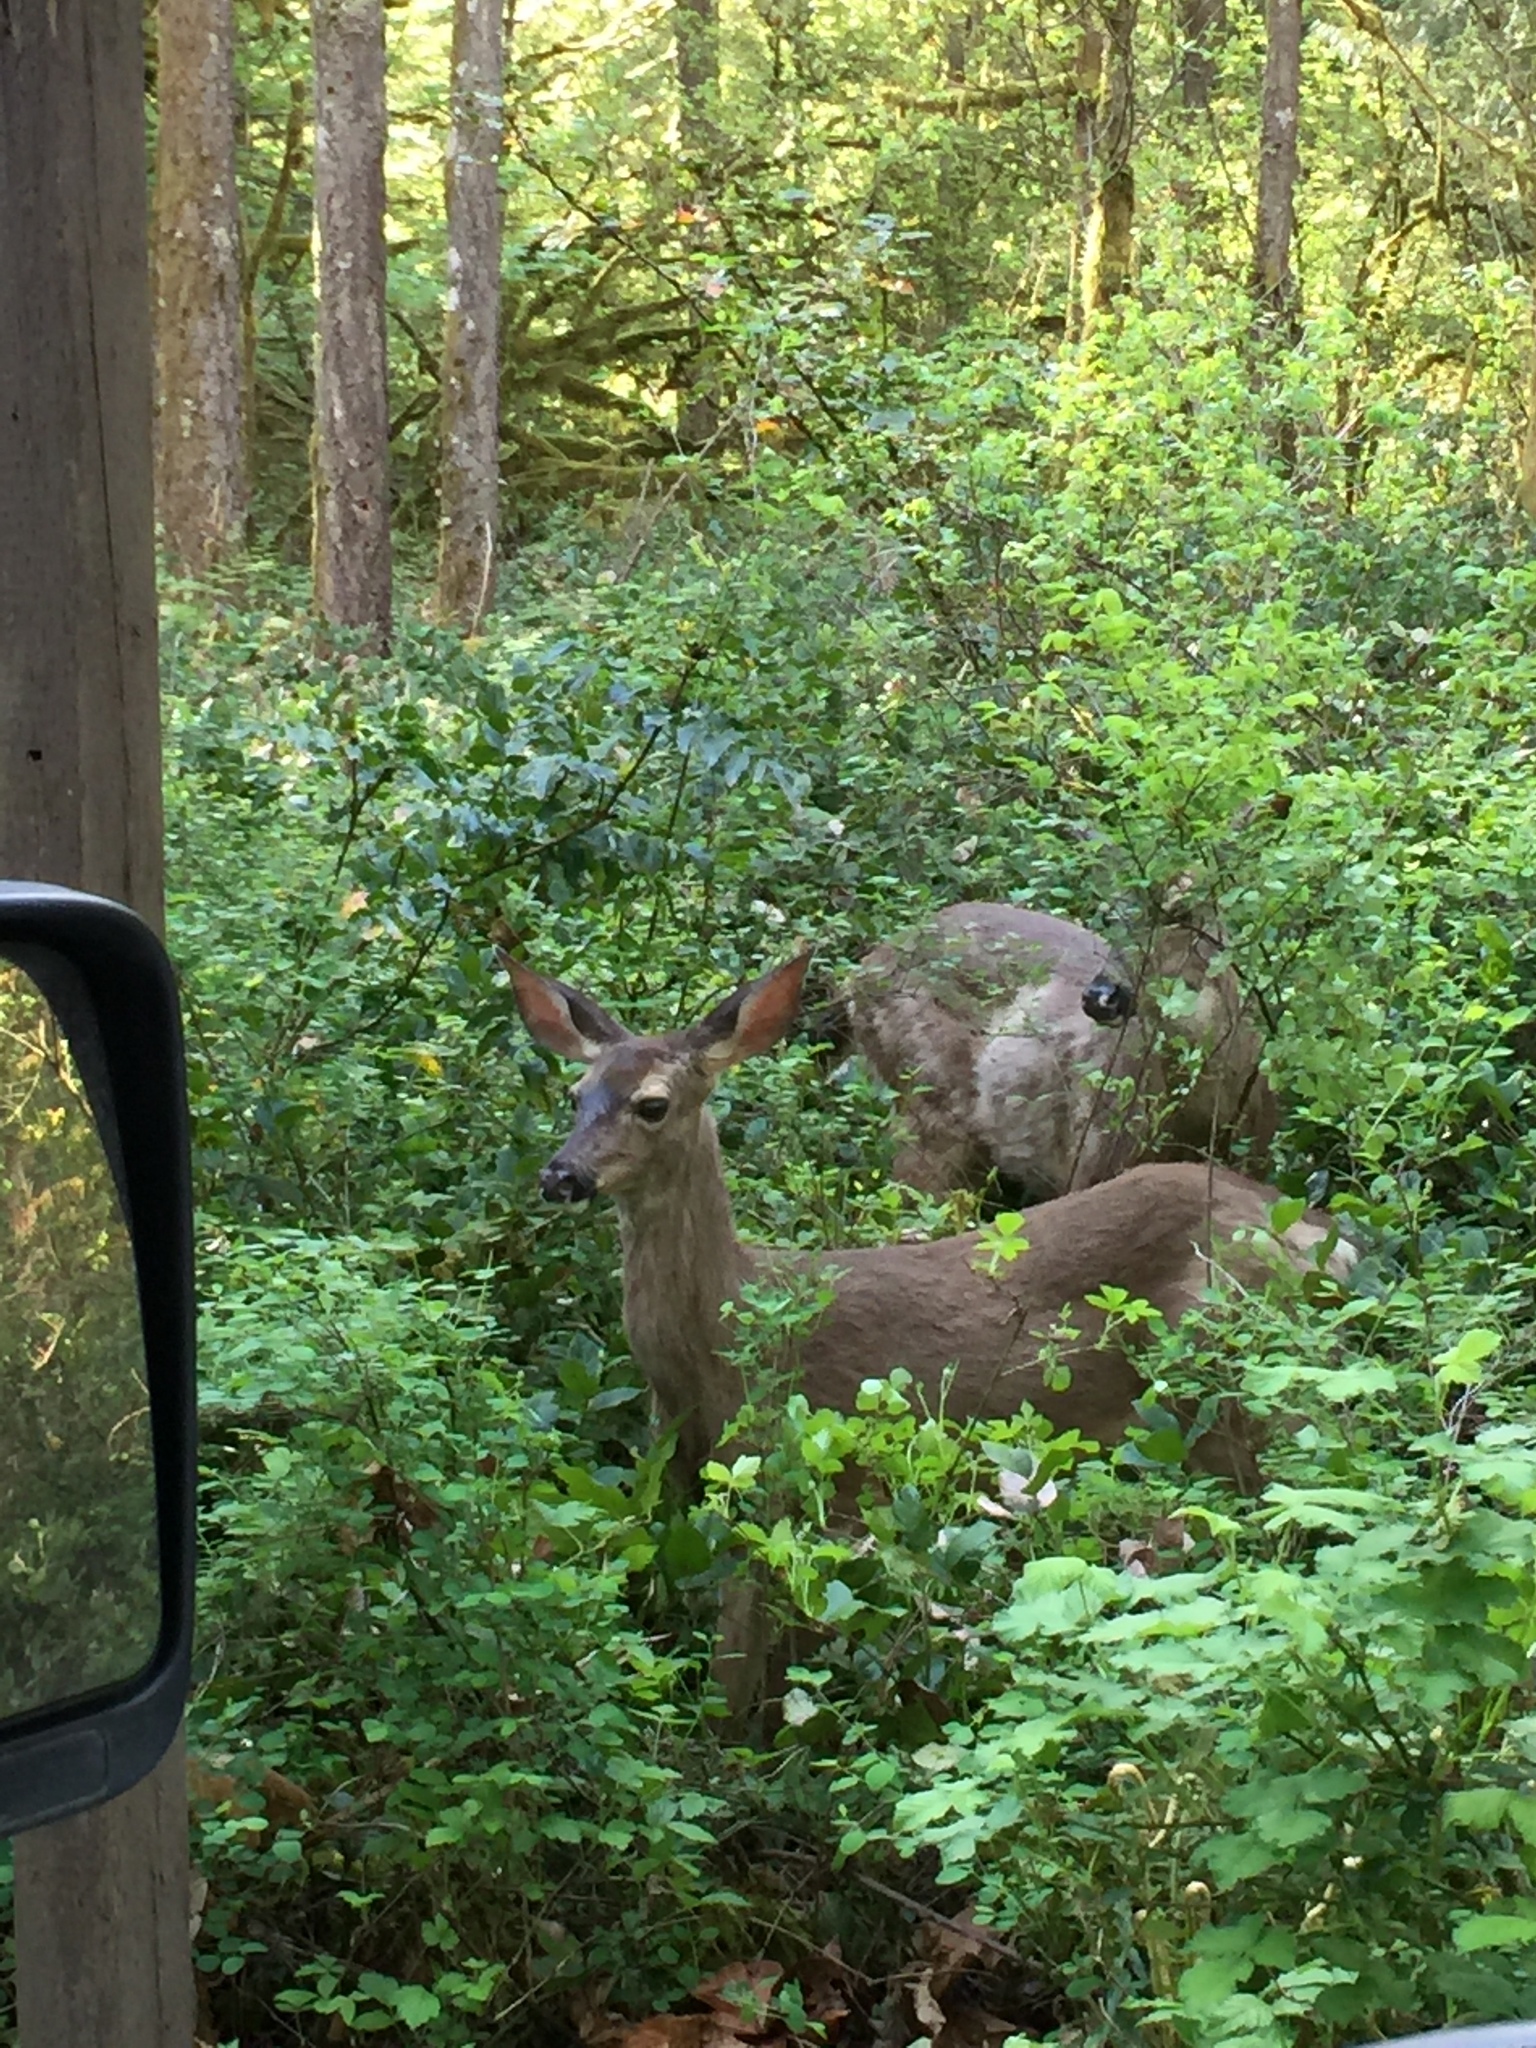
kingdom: Animalia
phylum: Chordata
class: Mammalia
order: Artiodactyla
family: Cervidae
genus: Odocoileus
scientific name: Odocoileus hemionus
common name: Mule deer
